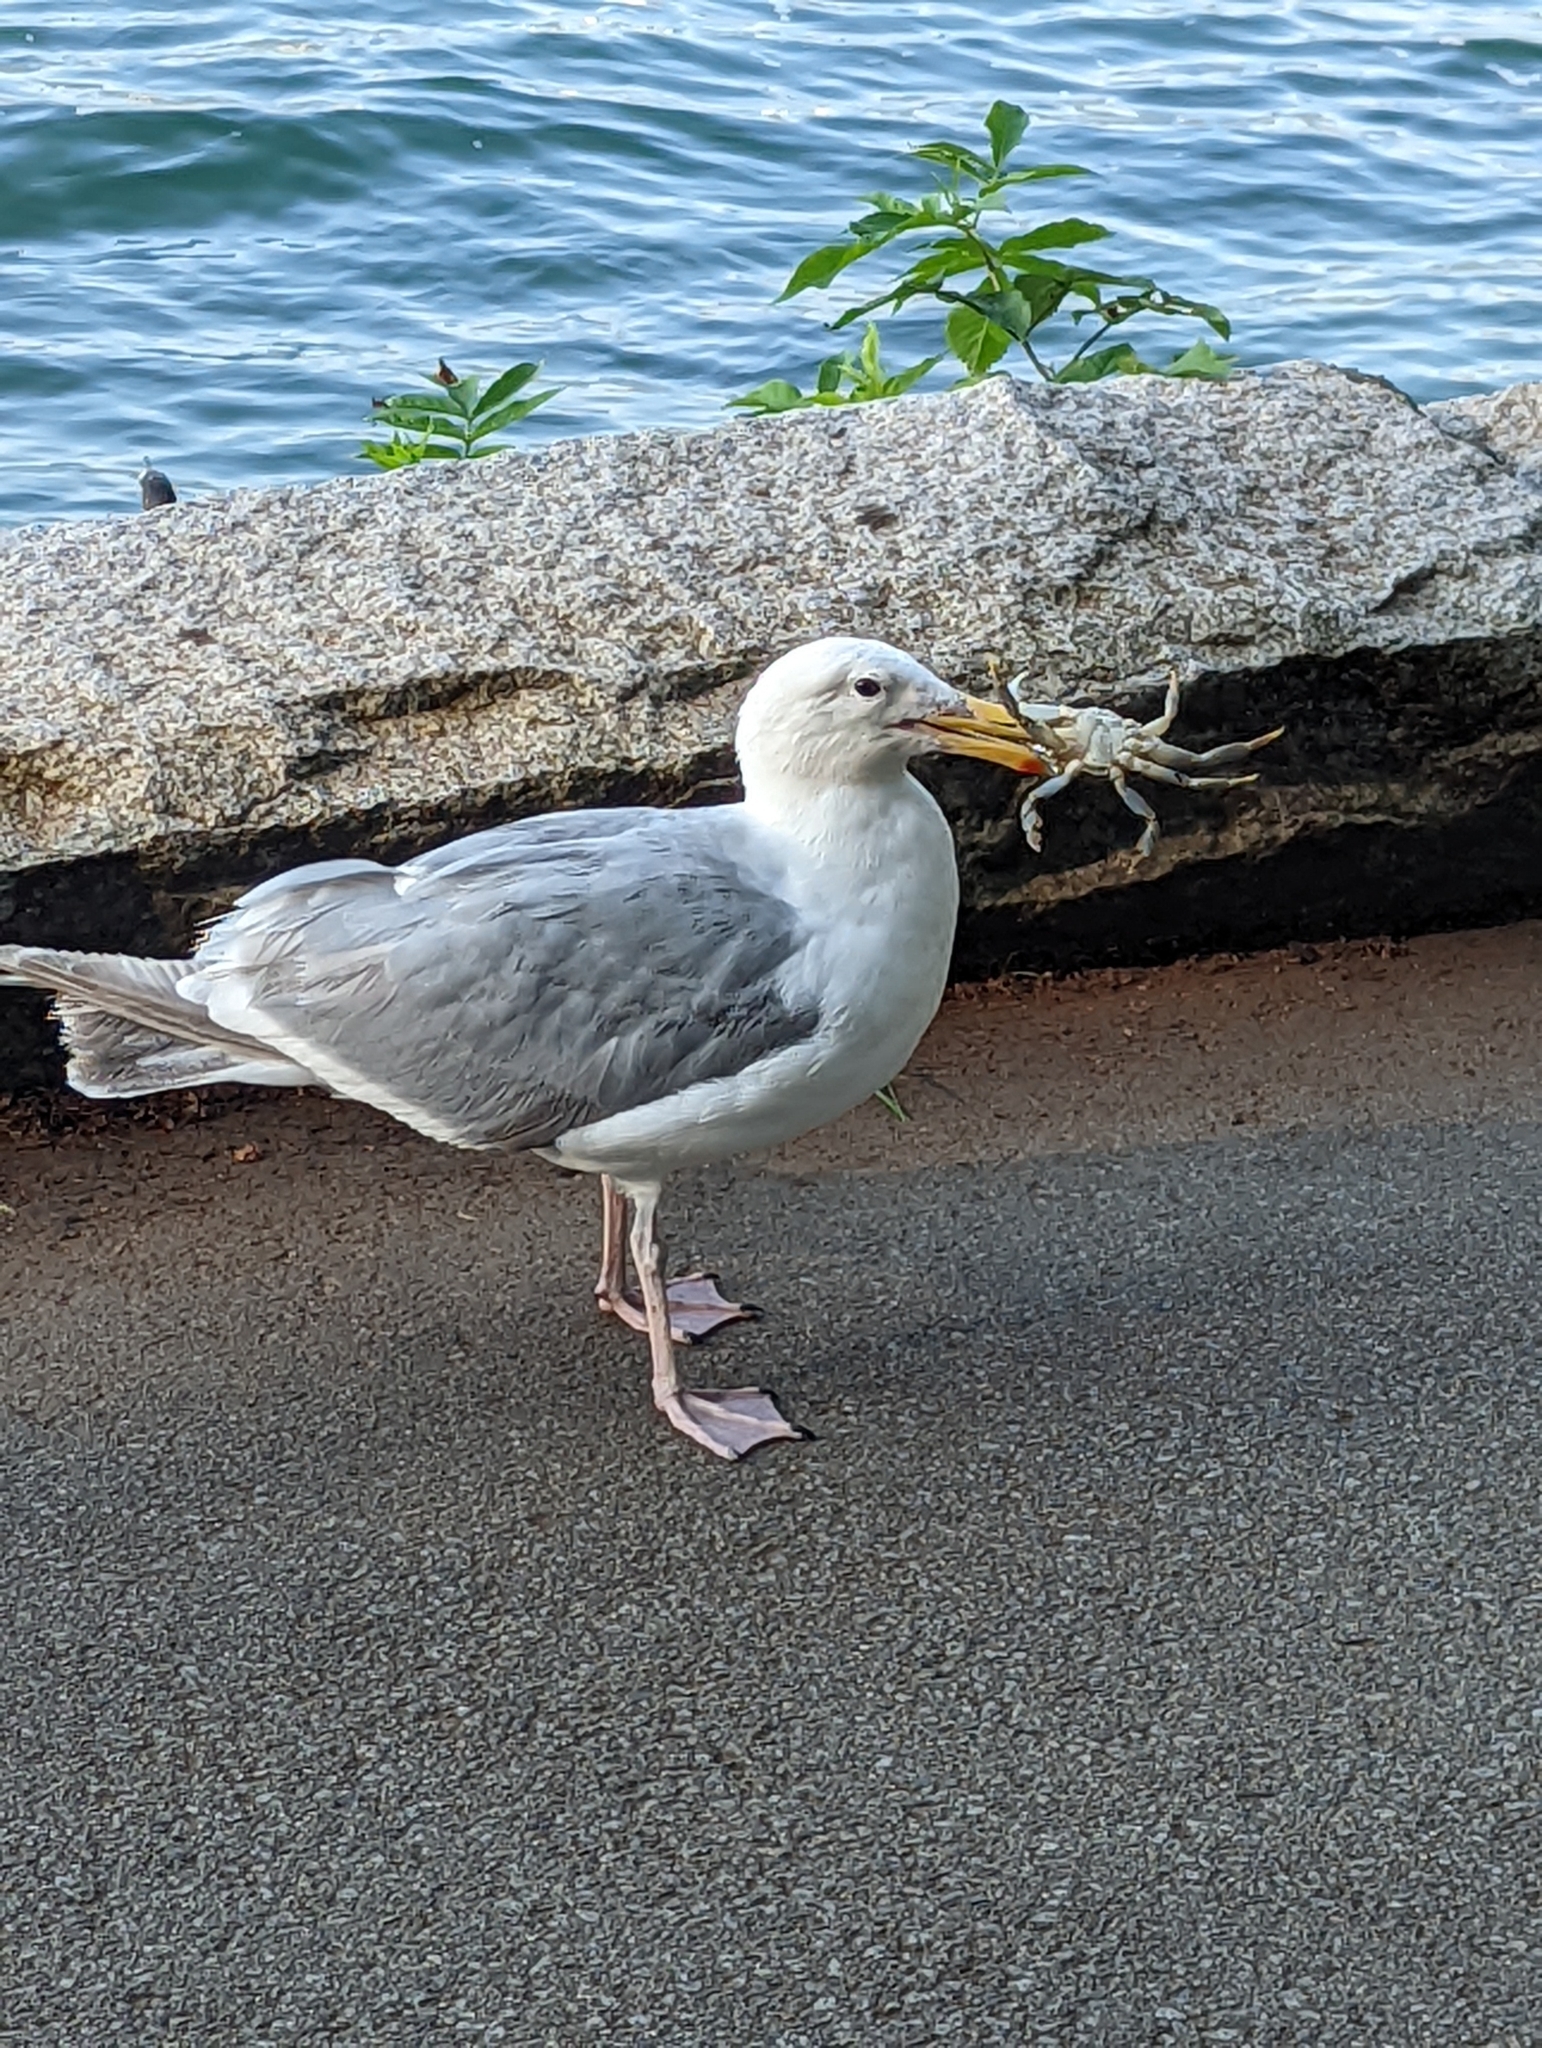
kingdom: Animalia
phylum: Chordata
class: Aves
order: Charadriiformes
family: Laridae
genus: Larus
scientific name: Larus glaucescens
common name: Glaucous-winged gull
